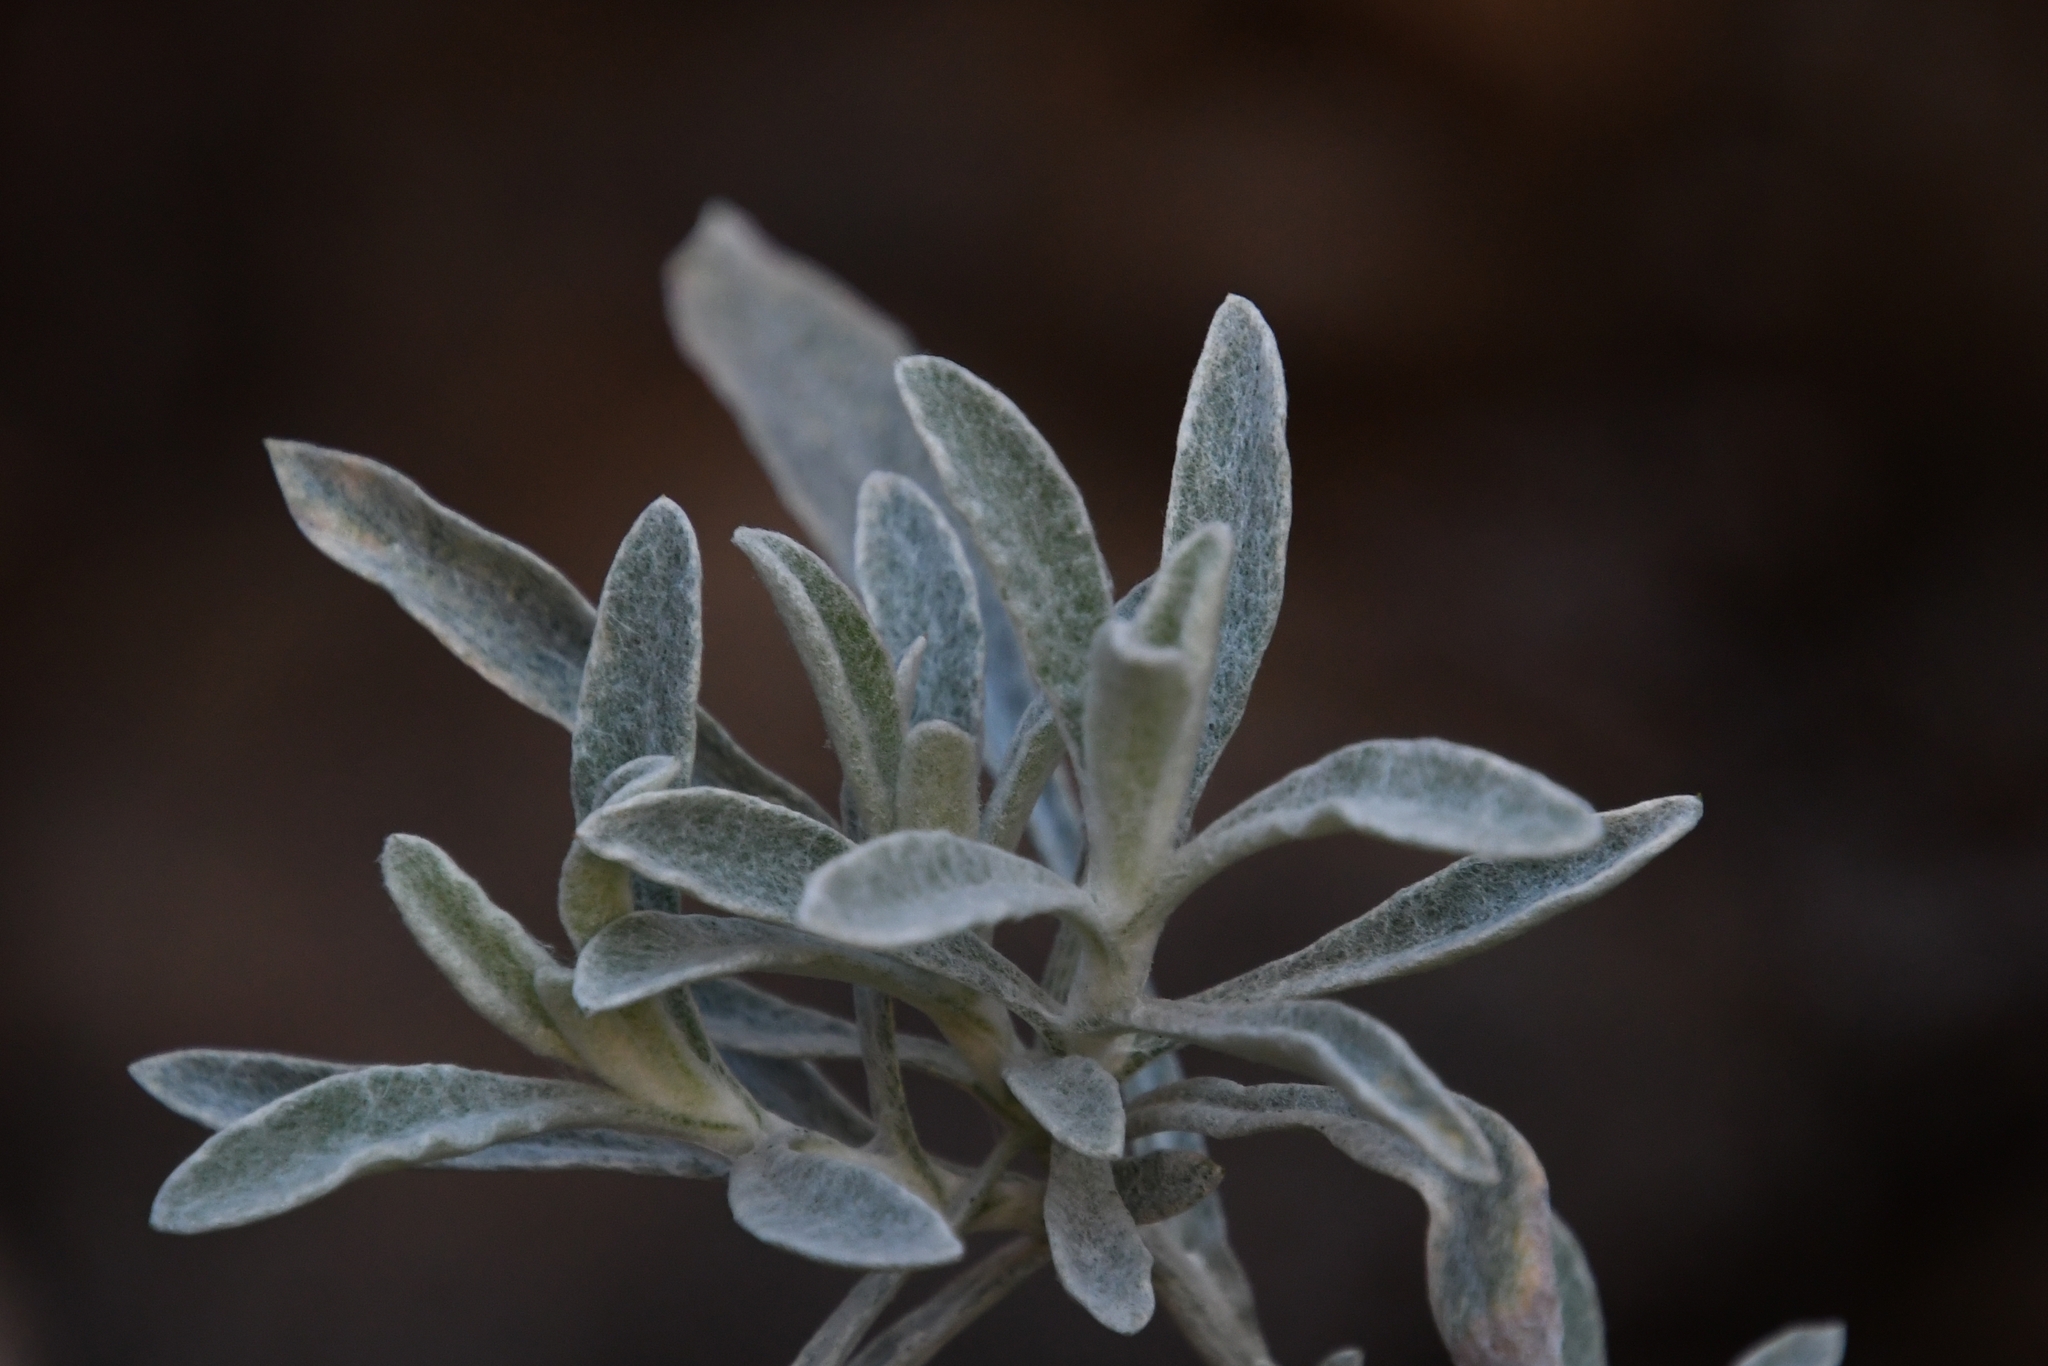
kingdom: Plantae
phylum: Tracheophyta
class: Magnoliopsida
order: Asterales
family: Asteraceae
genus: Pseudognaphalium
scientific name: Pseudognaphalium canescens
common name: Wright's rabbit-tobacco
